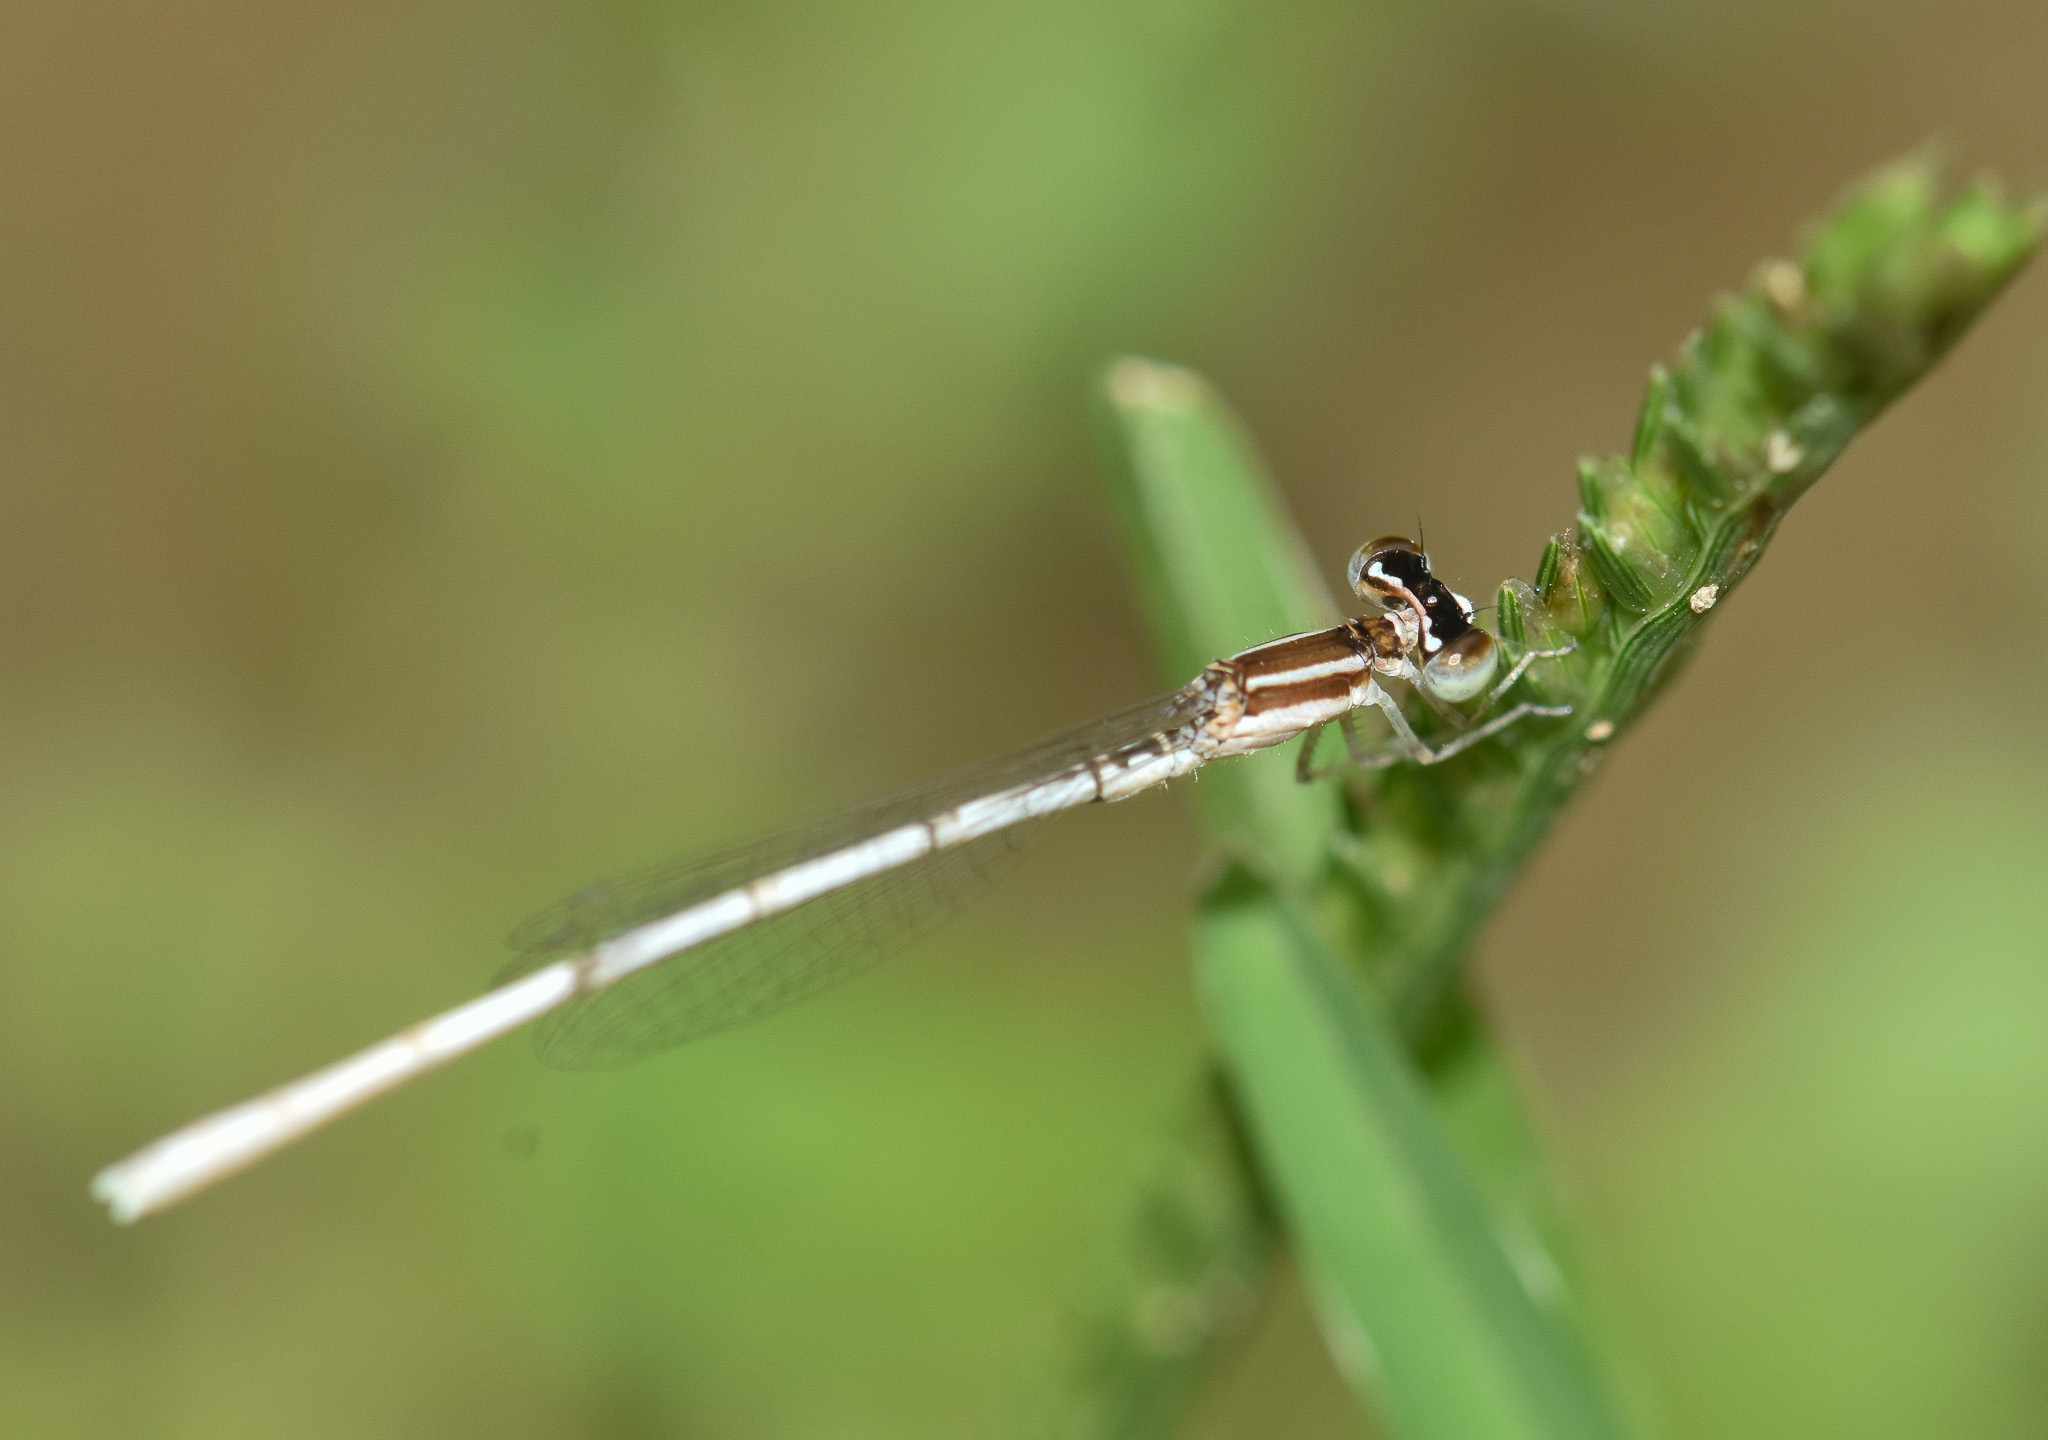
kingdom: Animalia
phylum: Arthropoda
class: Insecta
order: Odonata
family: Coenagrionidae
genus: Agriocnemis
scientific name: Agriocnemis lacteola
